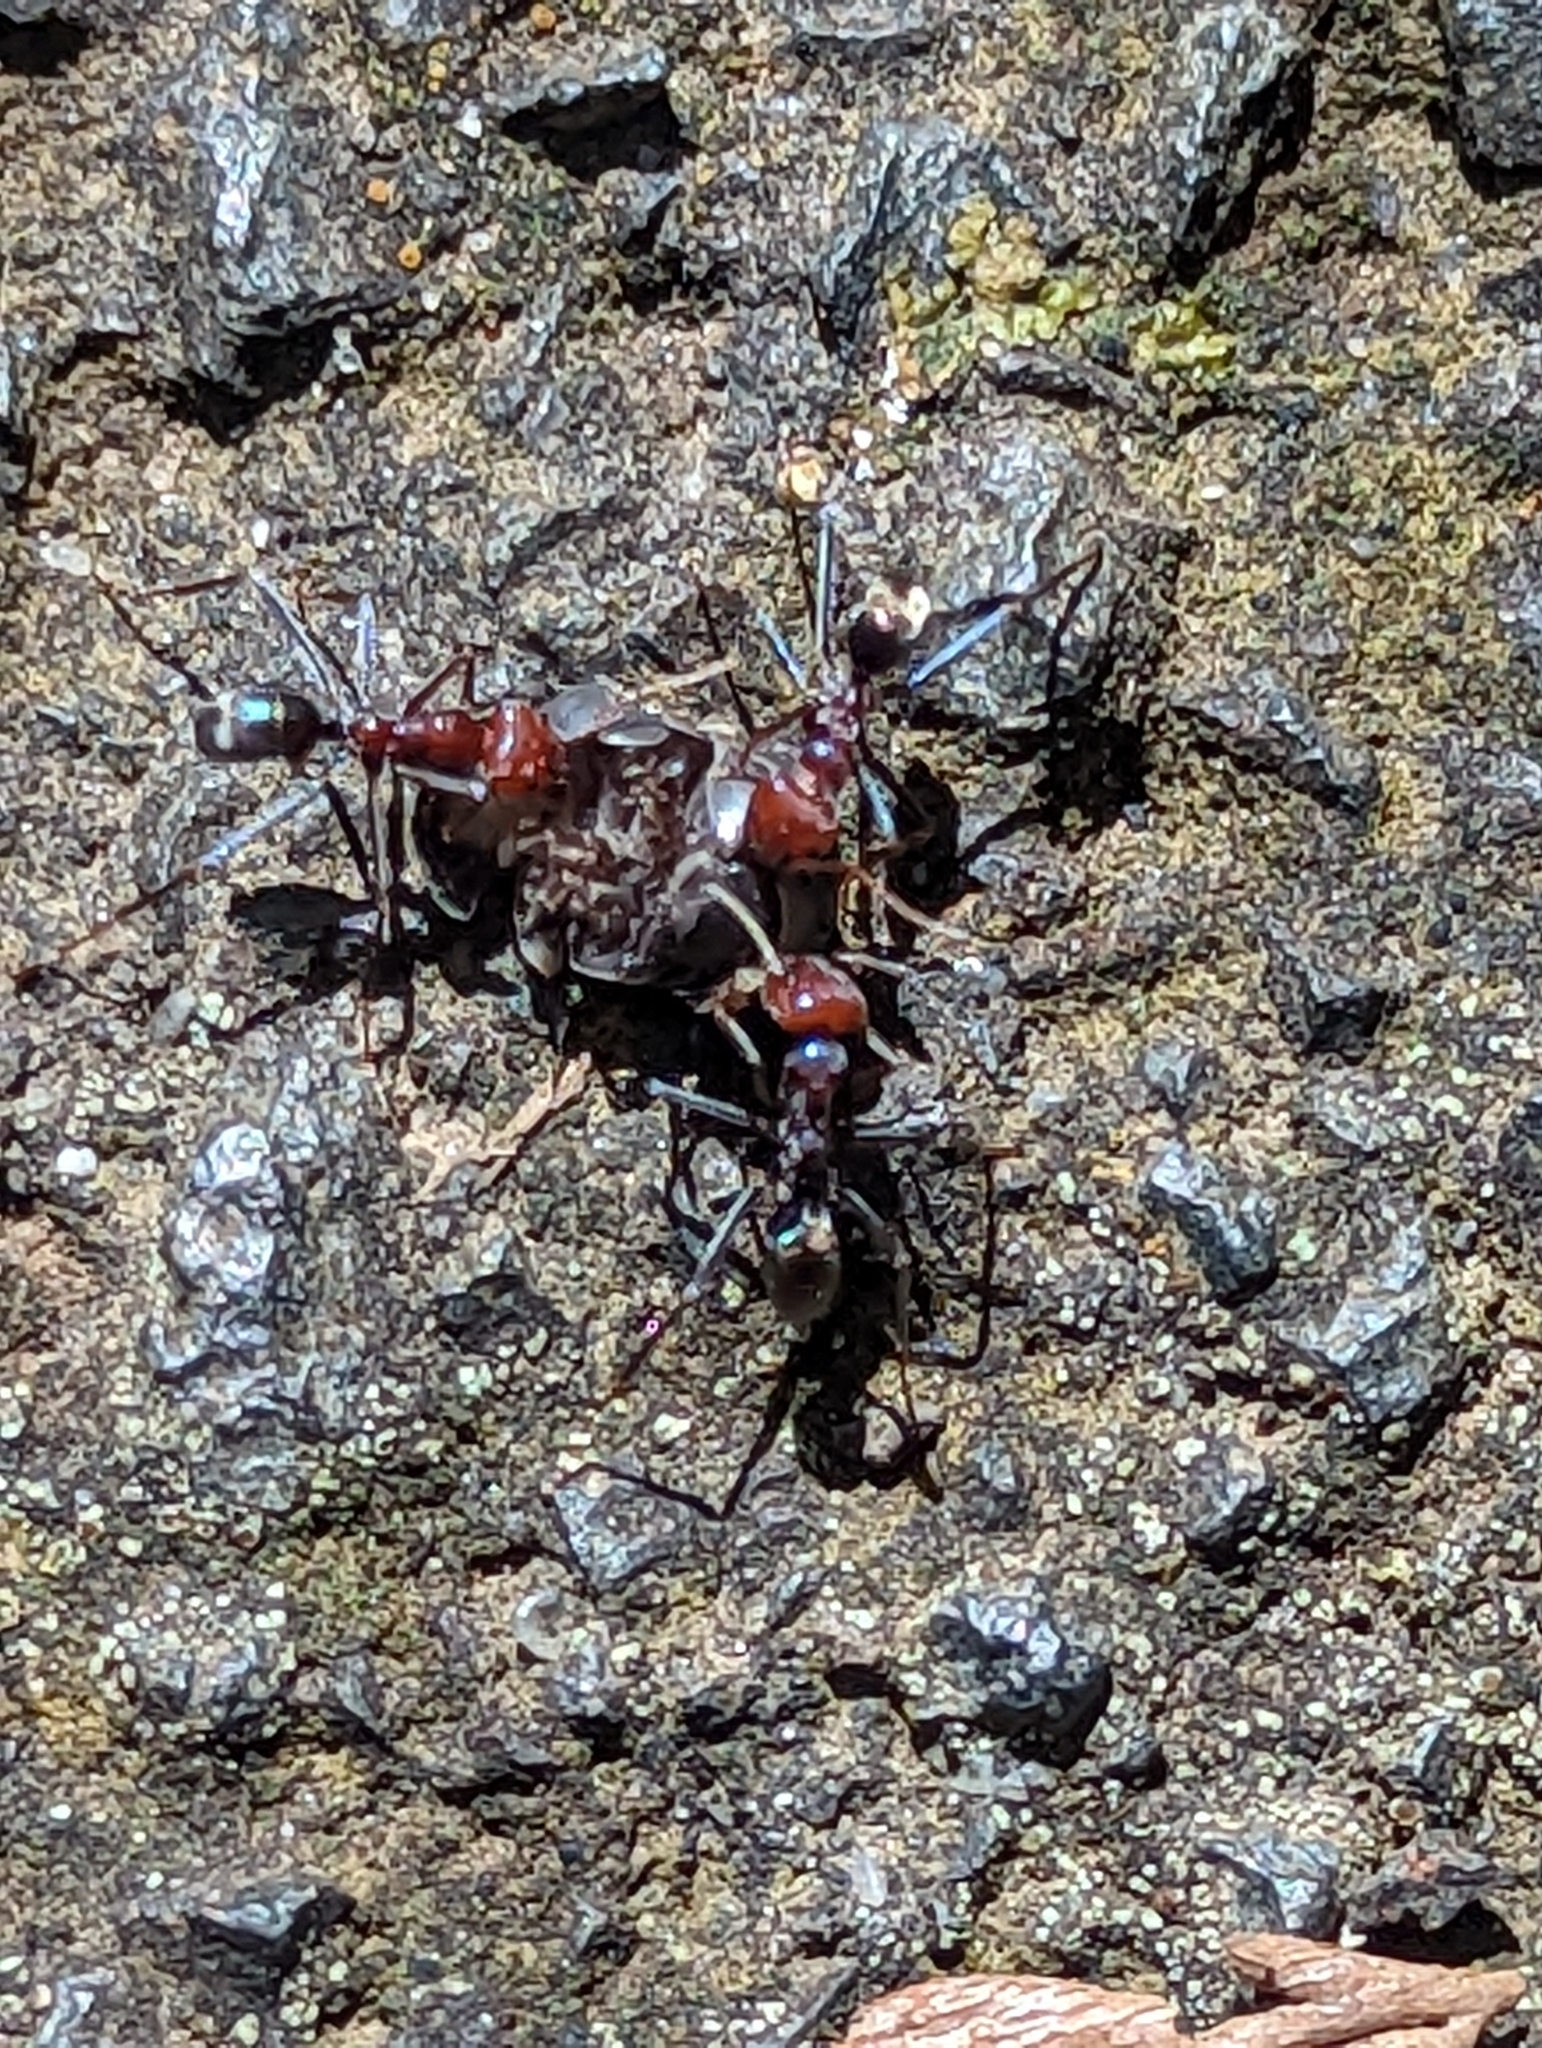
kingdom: Animalia
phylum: Arthropoda
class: Insecta
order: Hymenoptera
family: Formicidae
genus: Iridomyrmex
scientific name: Iridomyrmex purpureus
